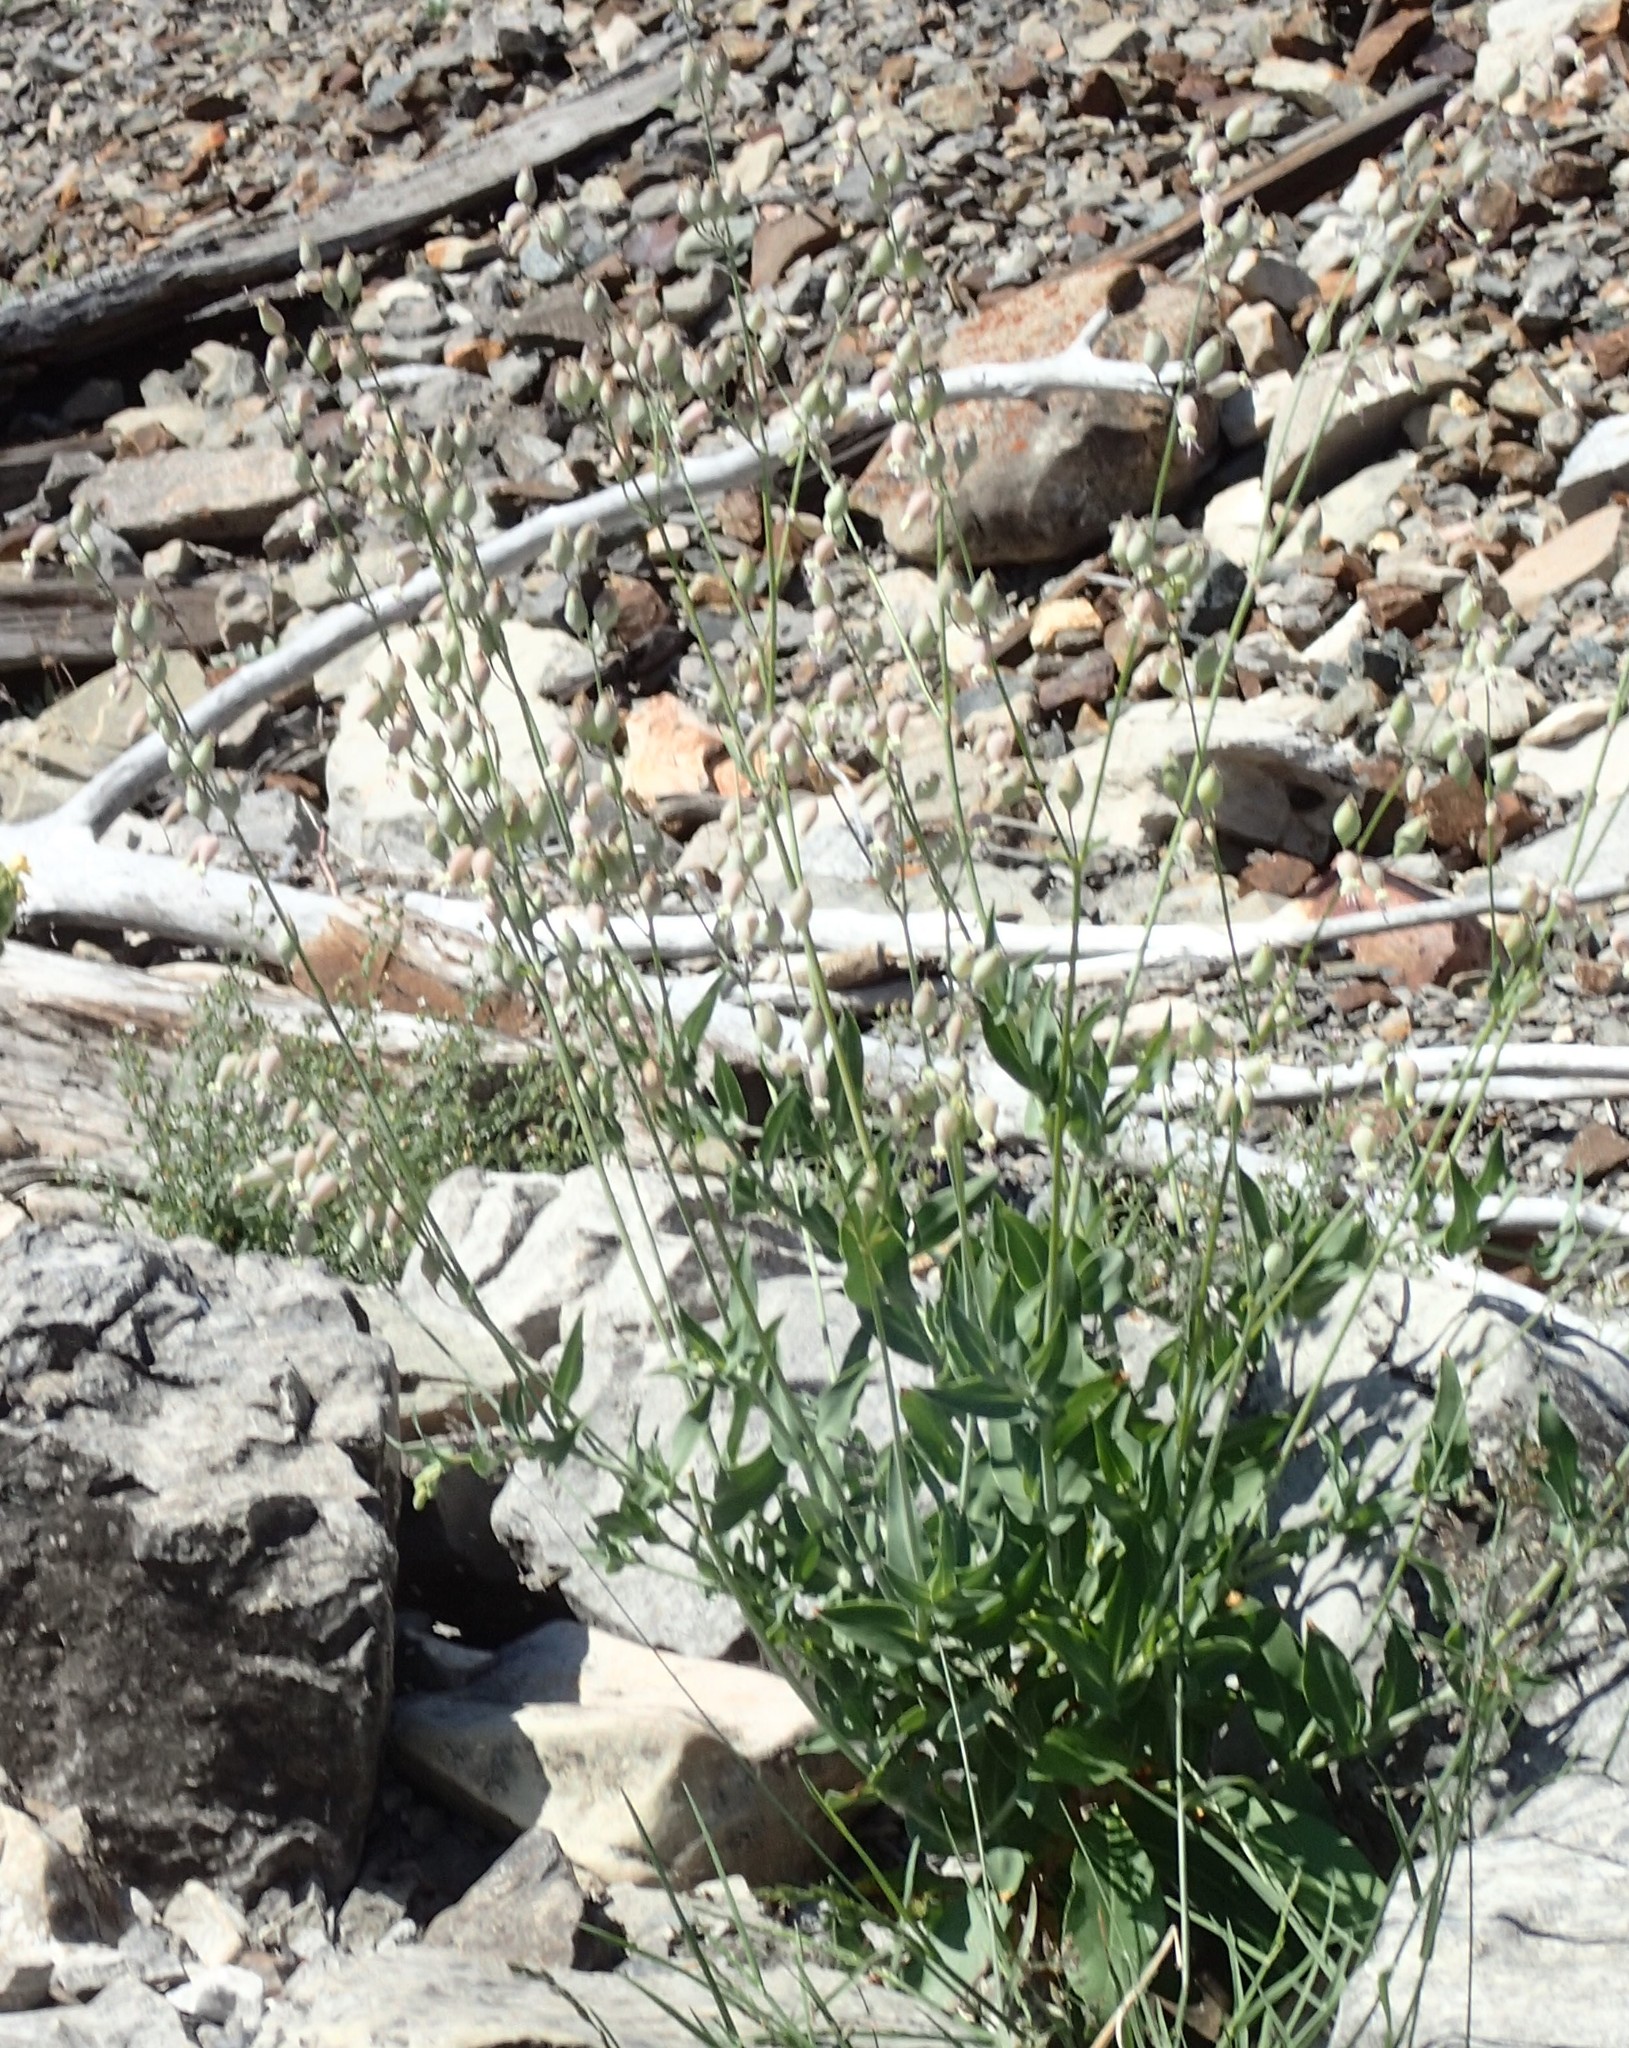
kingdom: Plantae
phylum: Tracheophyta
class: Magnoliopsida
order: Caryophyllales
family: Caryophyllaceae
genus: Silene
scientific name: Silene csereii
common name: Balkan catchfly
